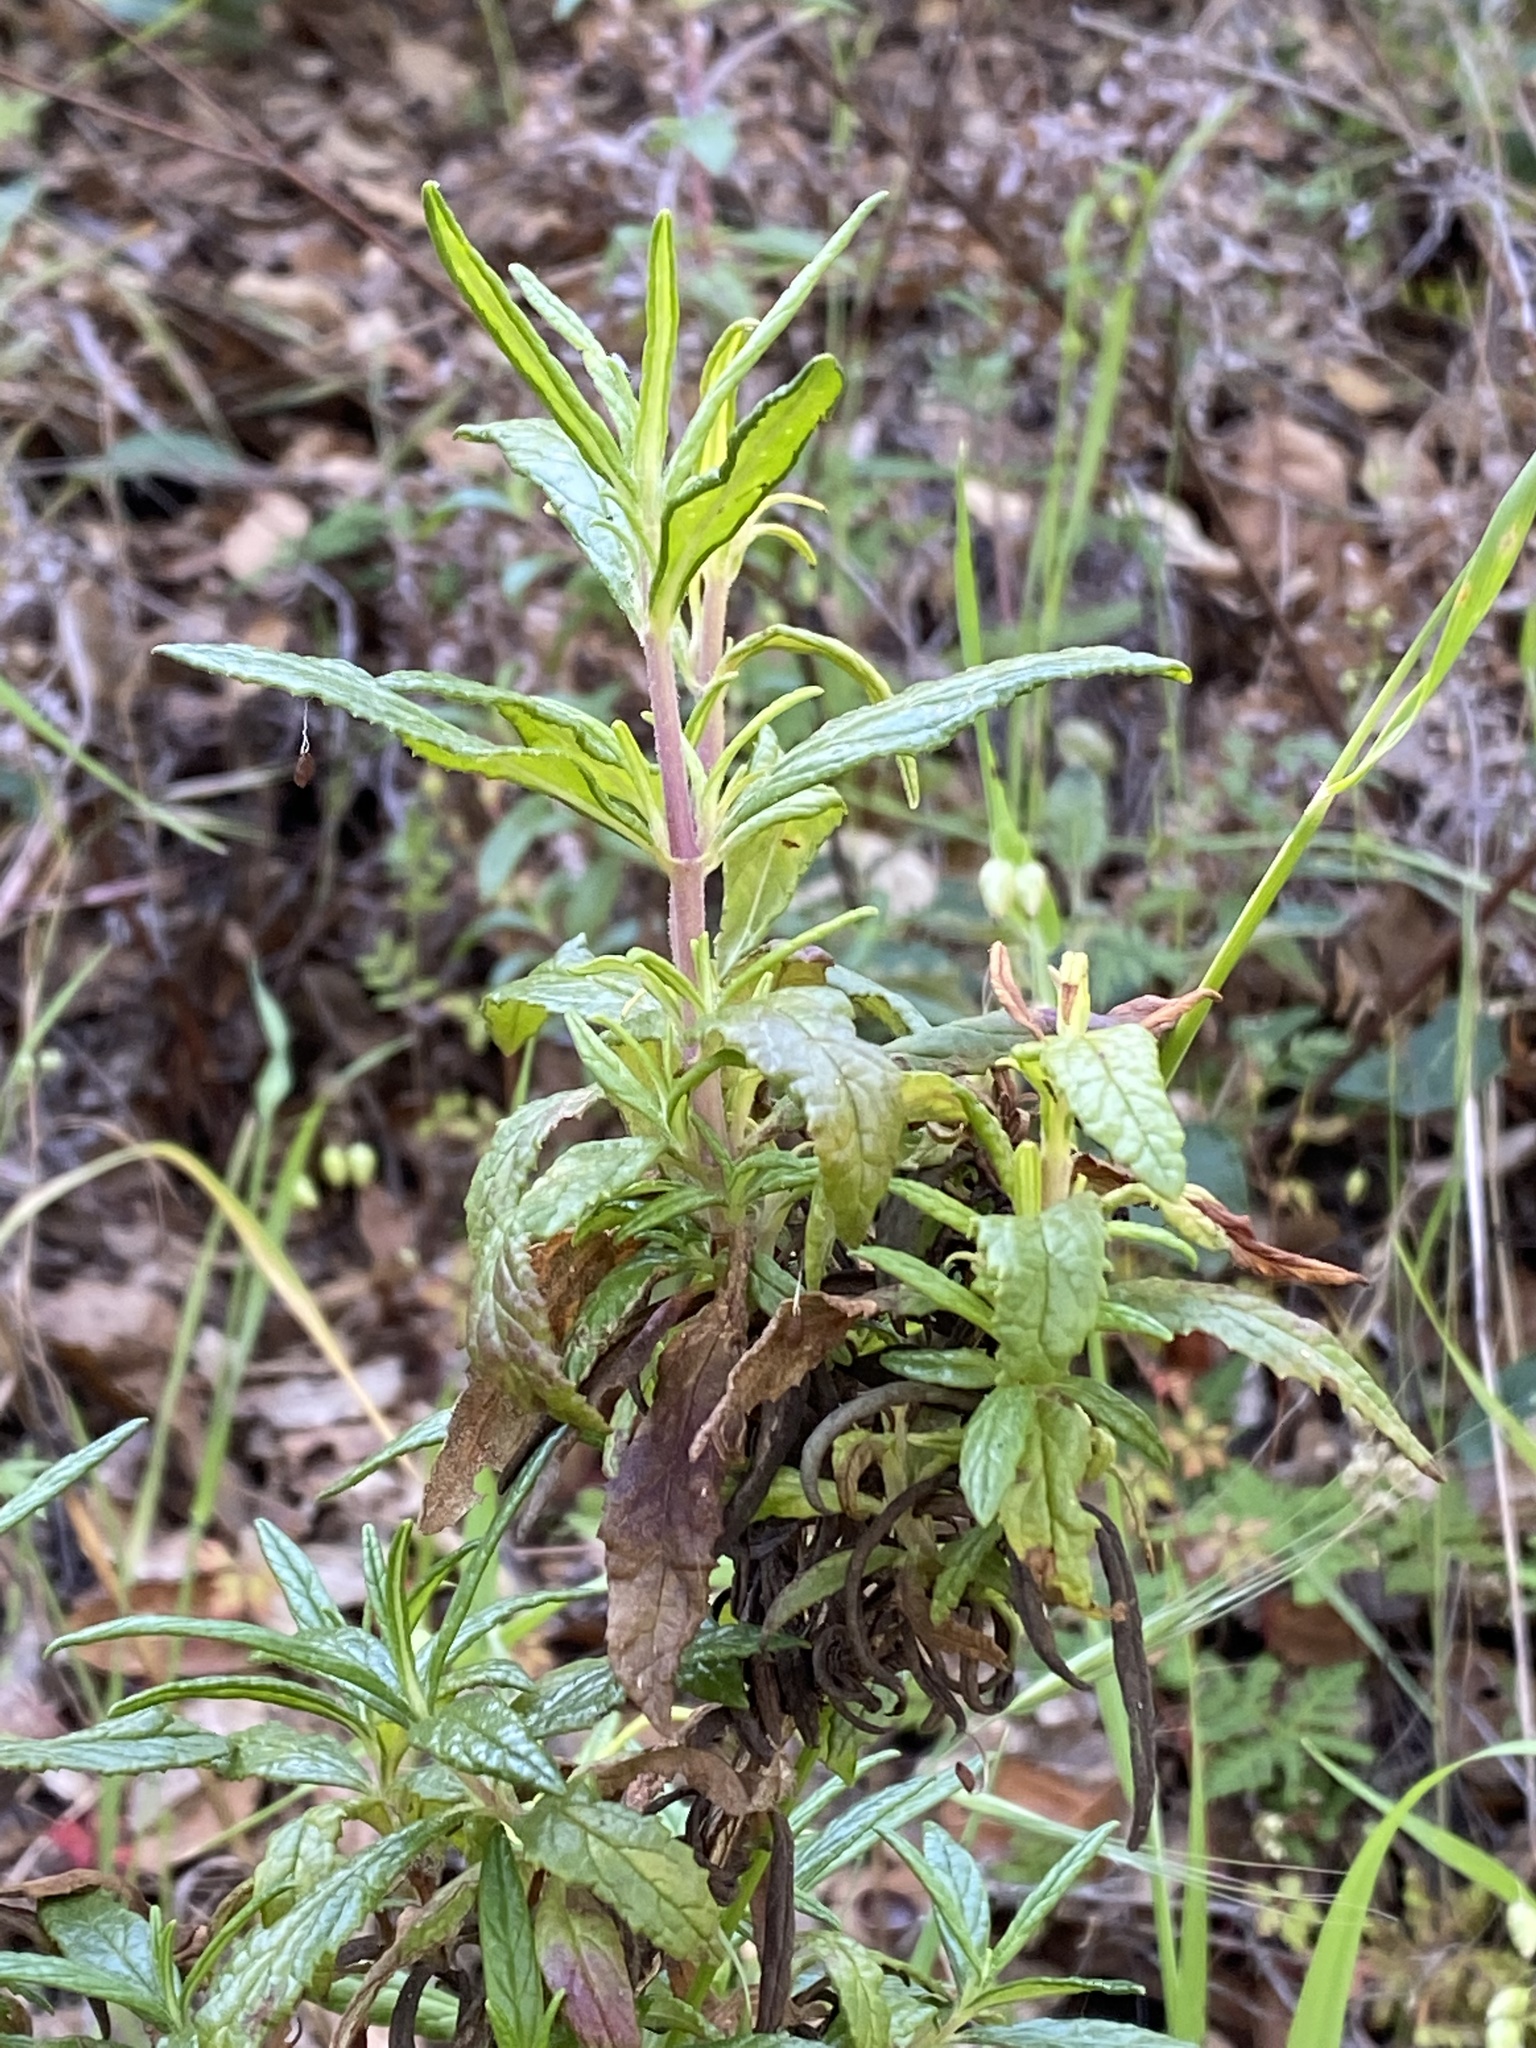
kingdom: Plantae
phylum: Tracheophyta
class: Magnoliopsida
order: Lamiales
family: Phrymaceae
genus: Diplacus
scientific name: Diplacus aurantiacus
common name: Bush monkey-flower
